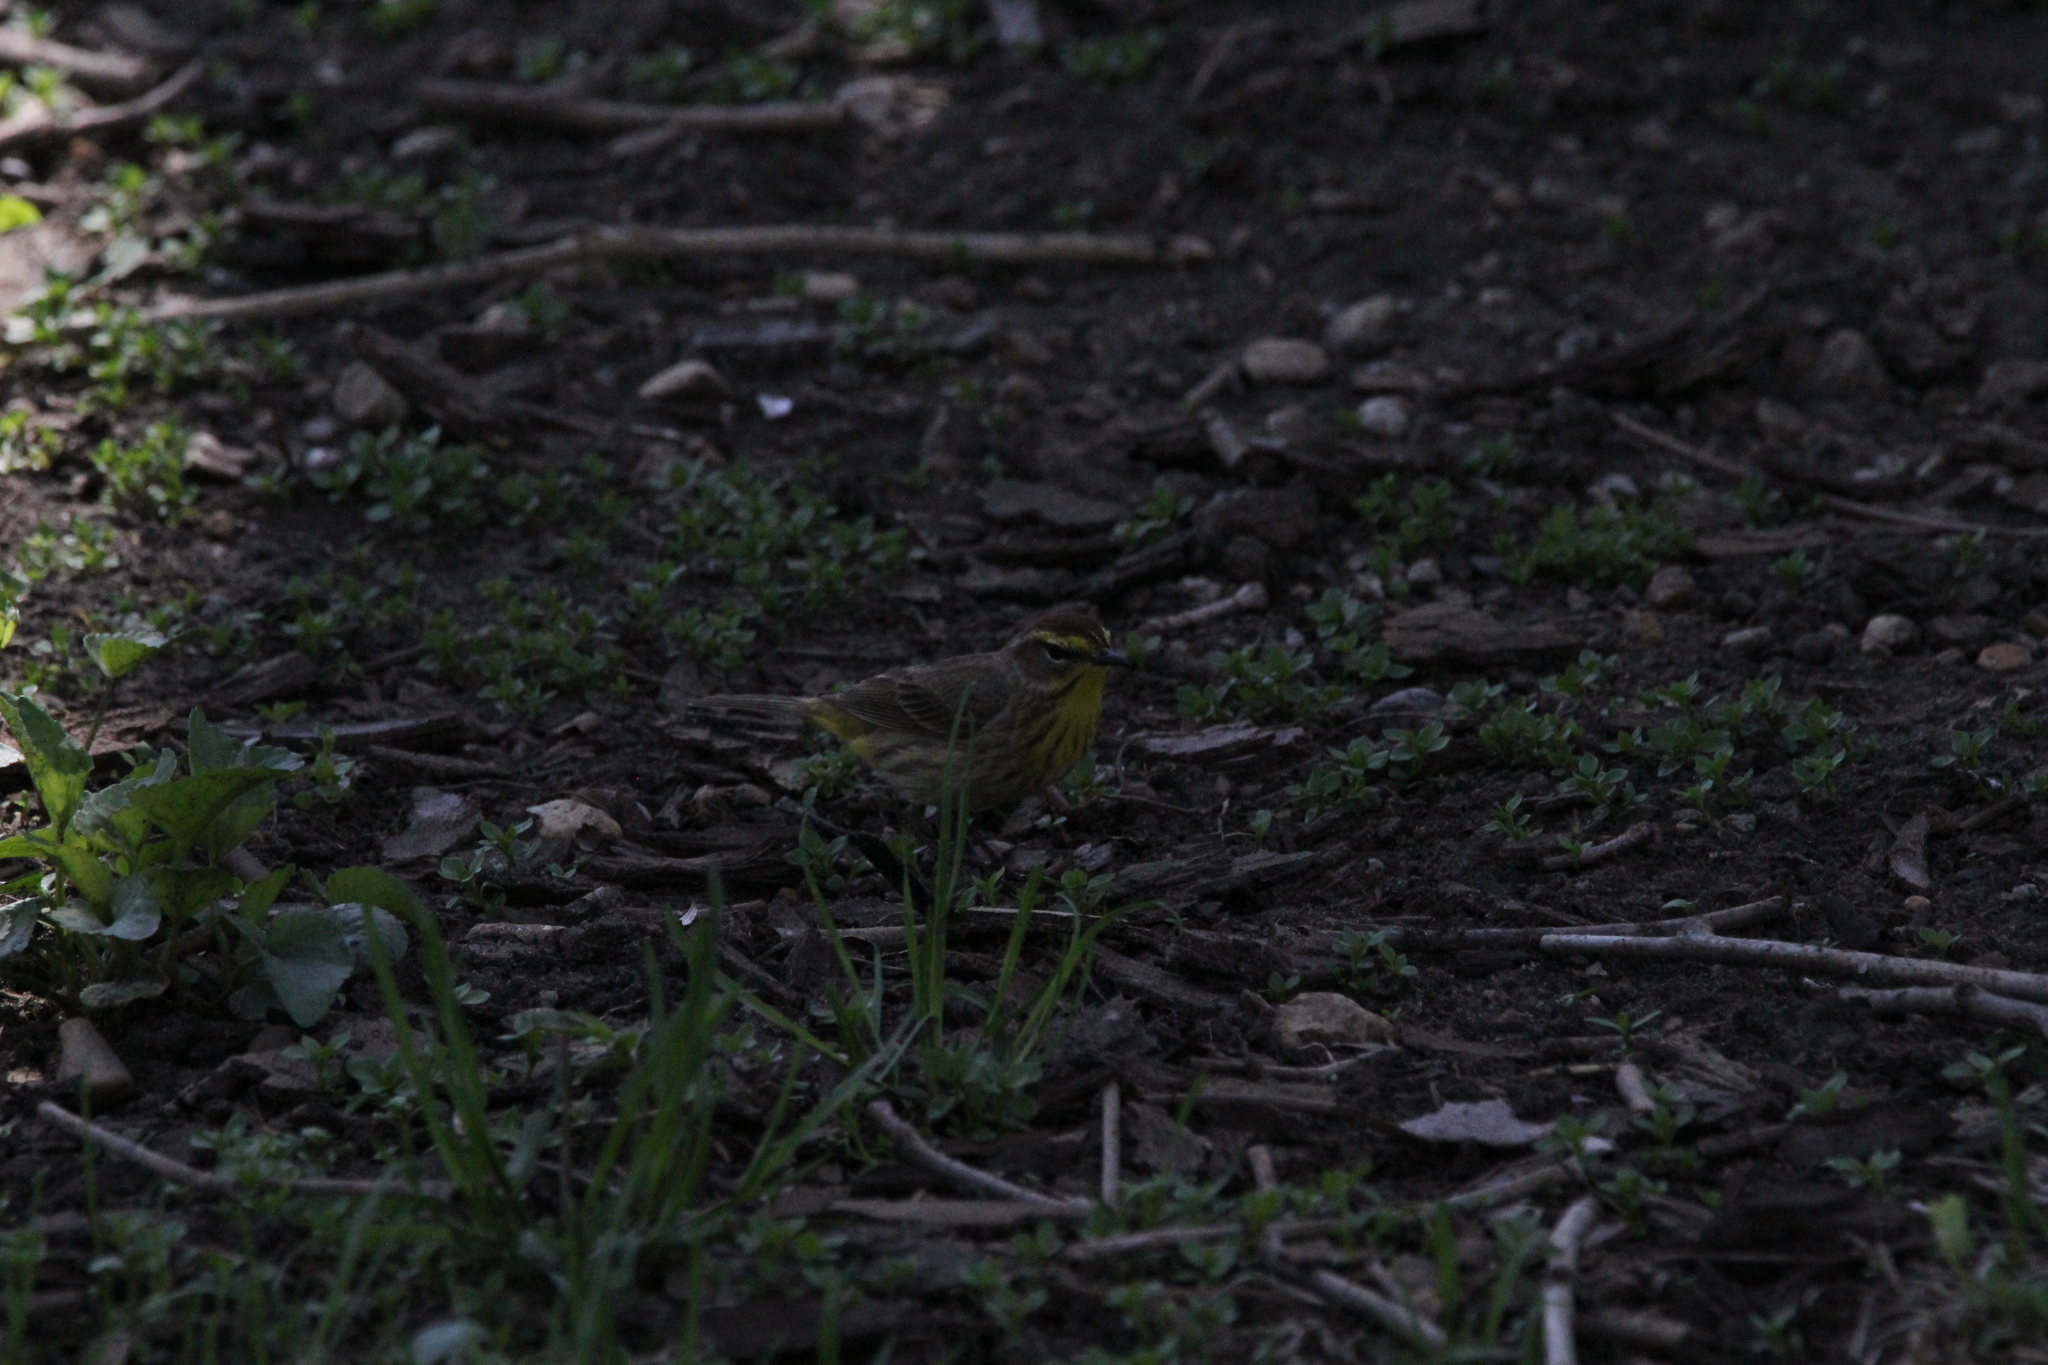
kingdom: Animalia
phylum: Chordata
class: Aves
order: Passeriformes
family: Parulidae
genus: Setophaga
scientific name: Setophaga palmarum
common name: Palm warbler
